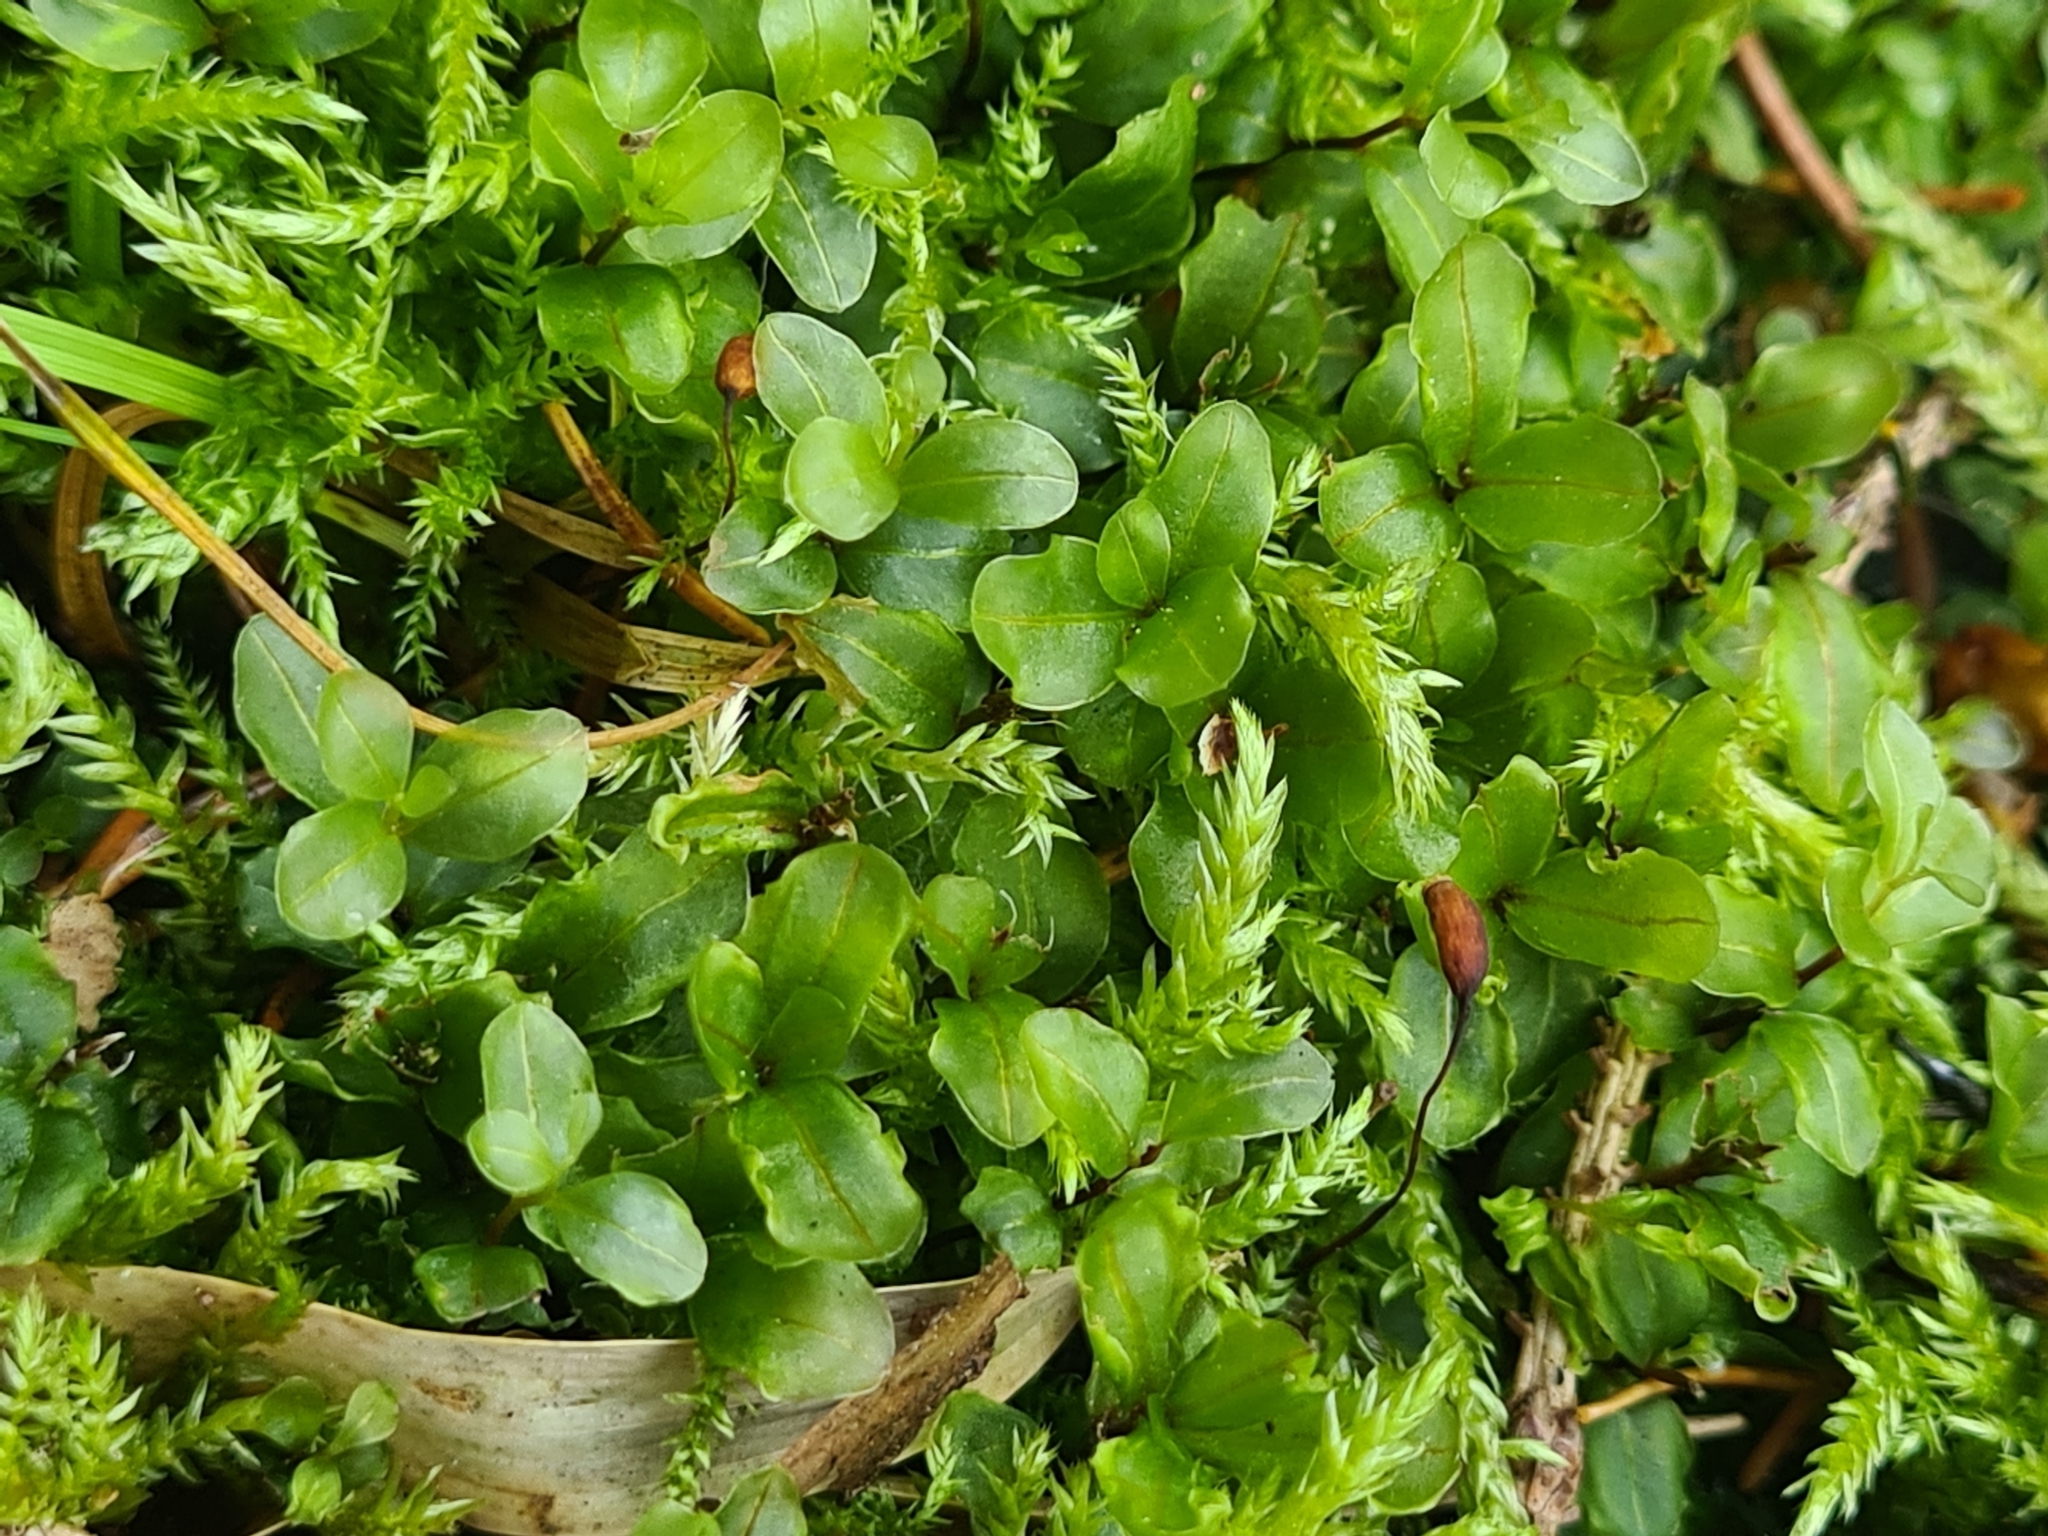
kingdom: Plantae
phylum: Bryophyta
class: Bryopsida
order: Bryales
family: Mniaceae
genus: Rhizomnium
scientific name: Rhizomnium punctatum
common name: Dotted leafy moss
